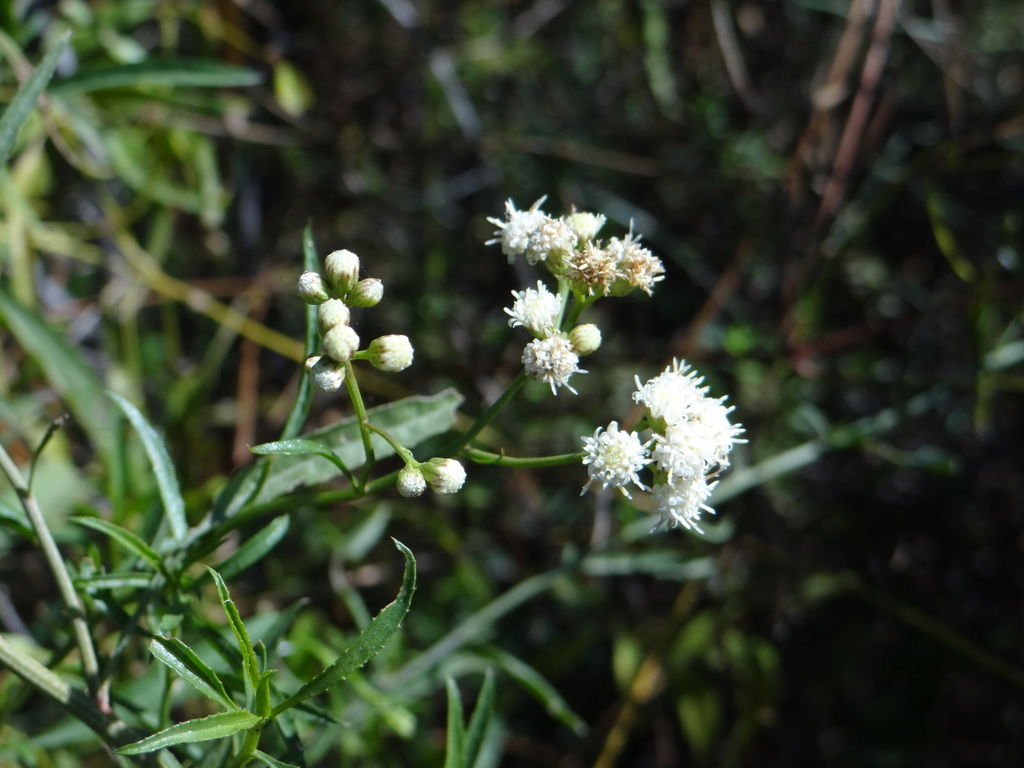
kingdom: Plantae
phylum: Tracheophyta
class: Magnoliopsida
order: Asterales
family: Asteraceae
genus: Baccharis
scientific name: Baccharis salicifolia
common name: Sticky baccharis
